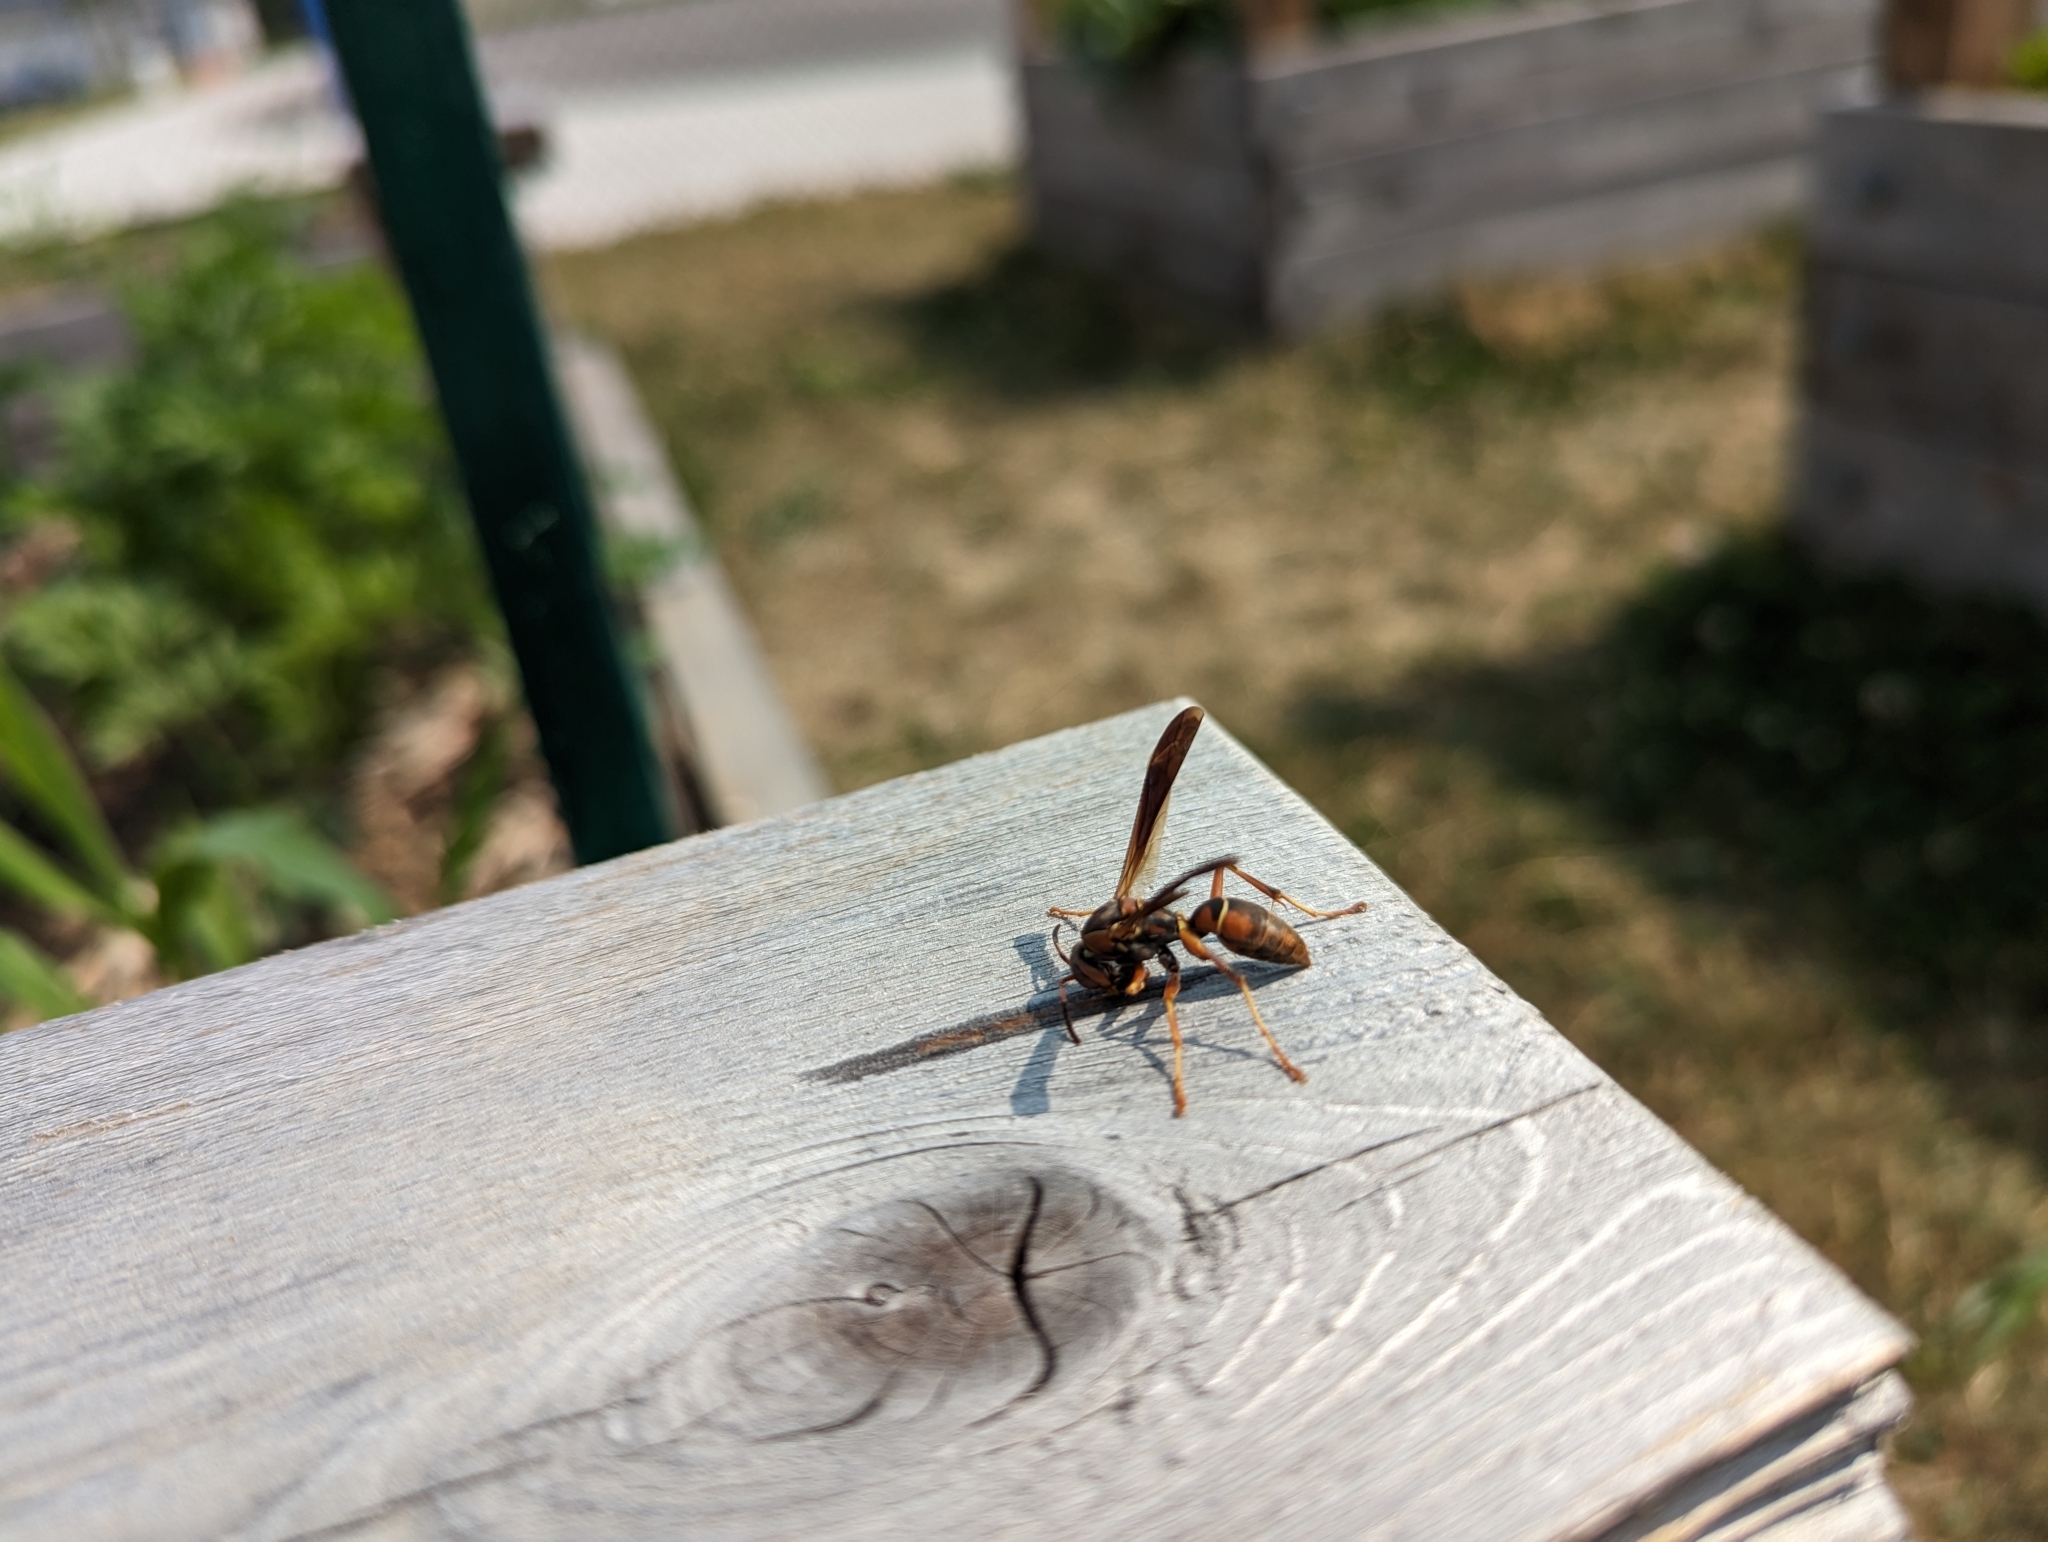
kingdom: Animalia
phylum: Arthropoda
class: Insecta
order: Hymenoptera
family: Eumenidae
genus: Polistes
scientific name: Polistes fuscatus
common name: Dark paper wasp
